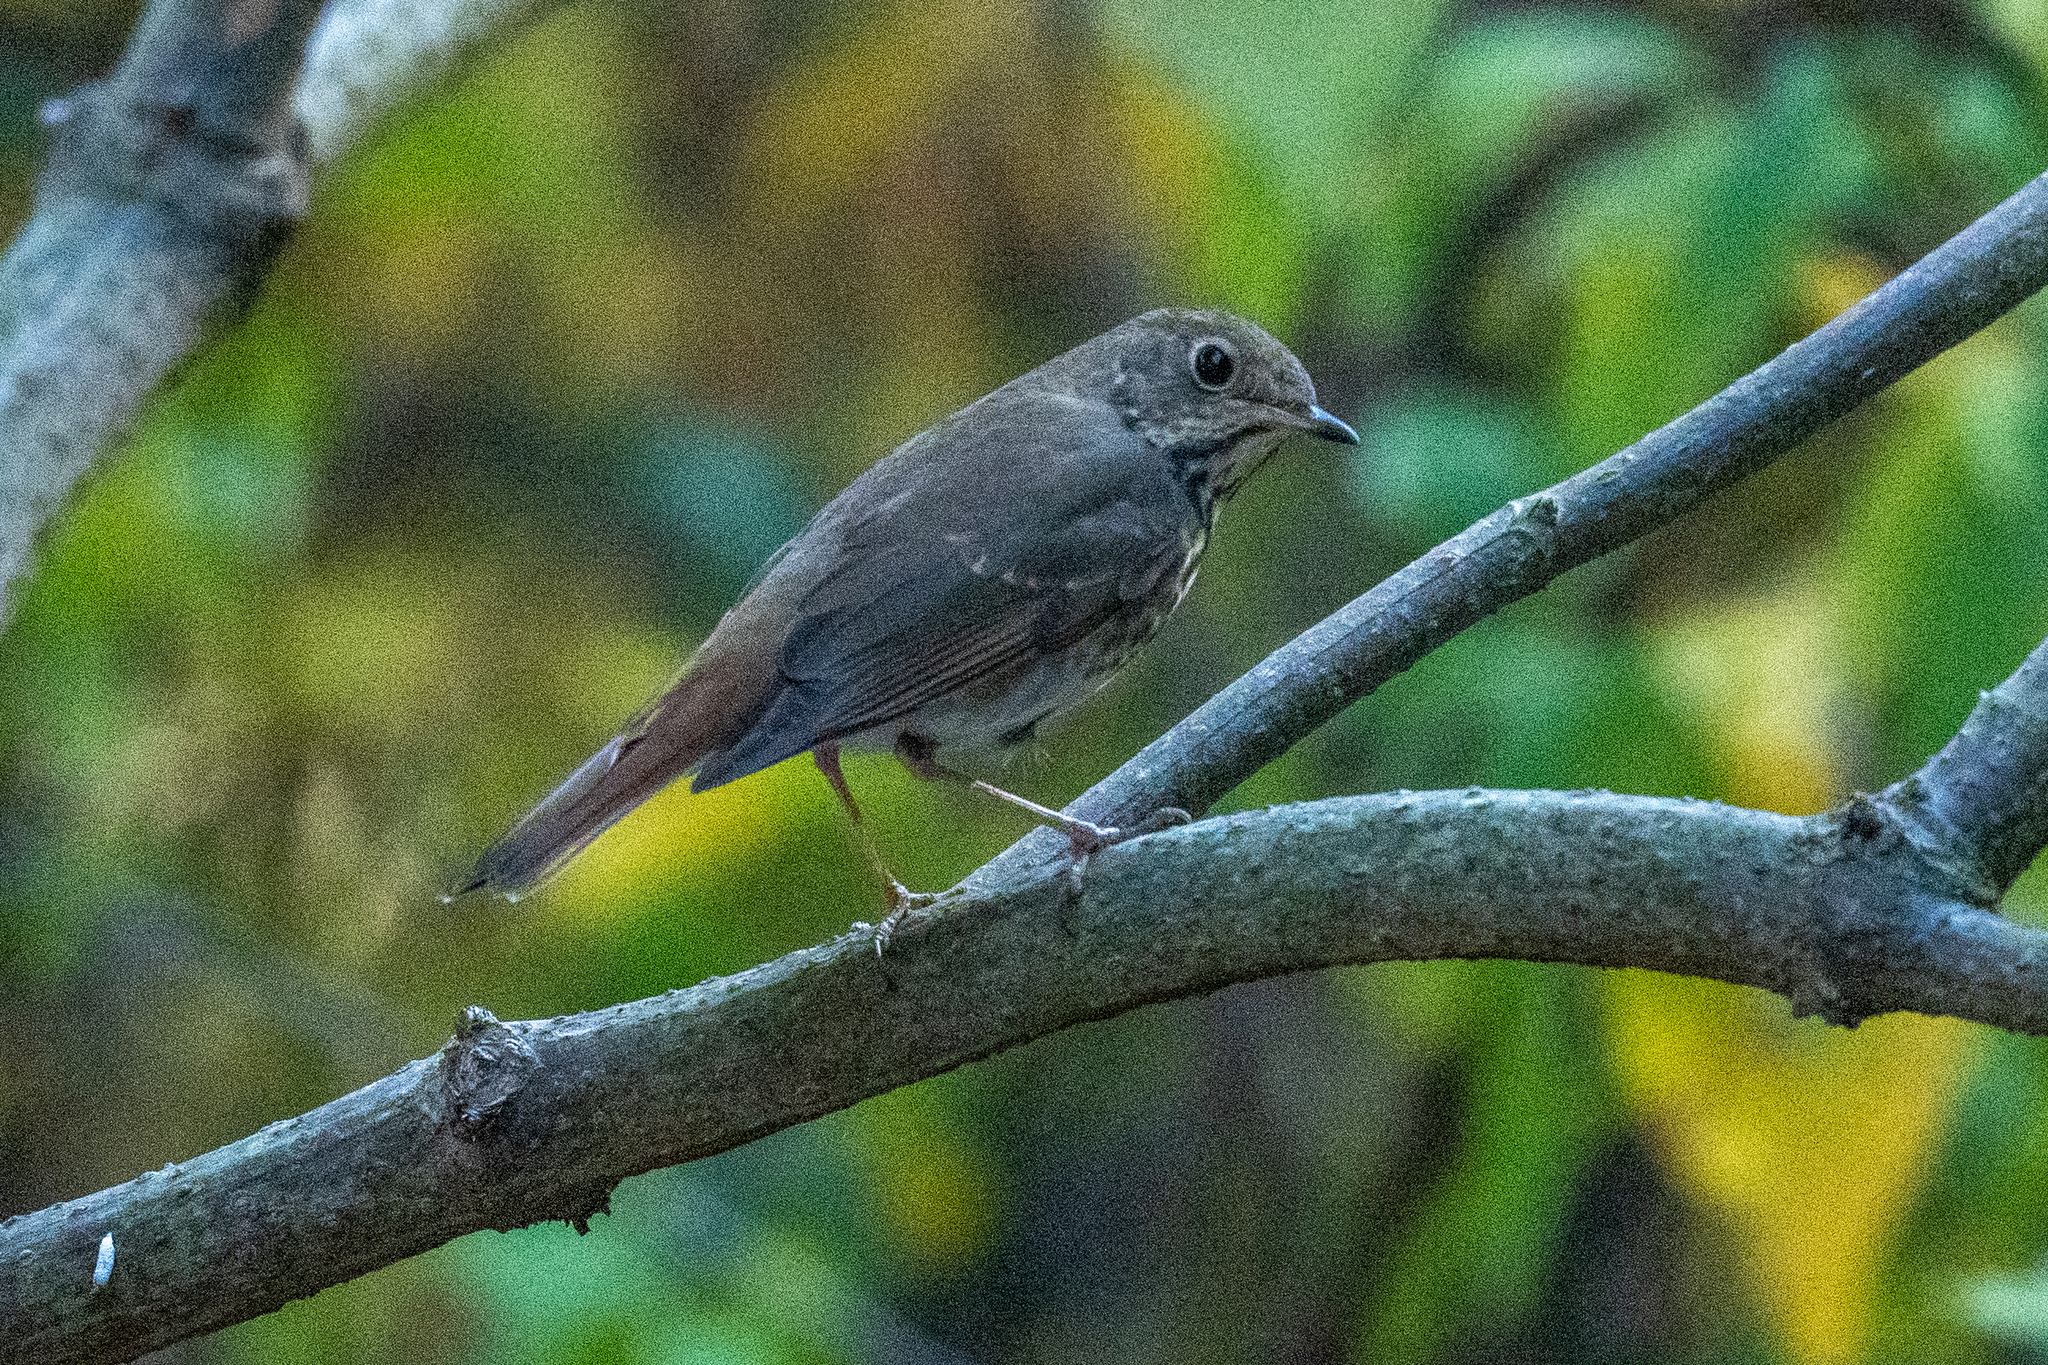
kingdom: Animalia
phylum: Chordata
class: Aves
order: Passeriformes
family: Turdidae
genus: Catharus
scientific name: Catharus guttatus
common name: Hermit thrush
